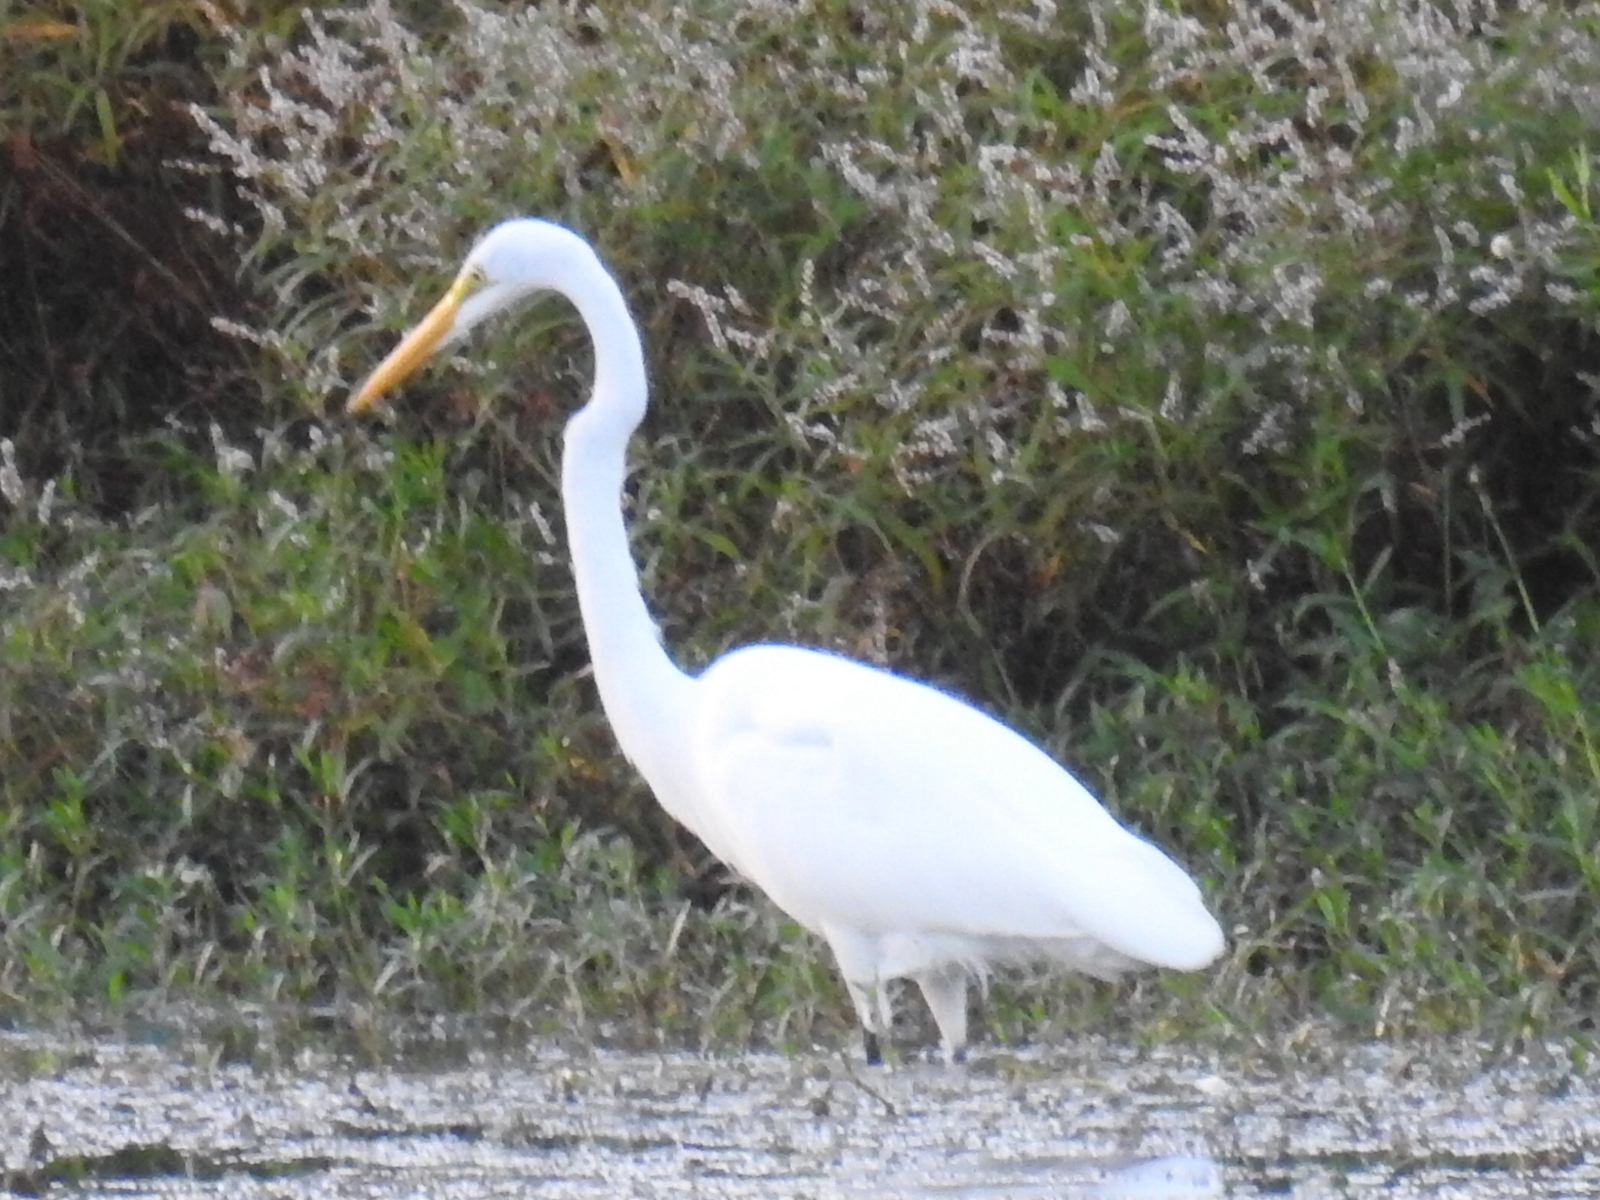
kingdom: Animalia
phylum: Chordata
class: Aves
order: Pelecaniformes
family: Ardeidae
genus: Ardea
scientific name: Ardea alba
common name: Great egret
